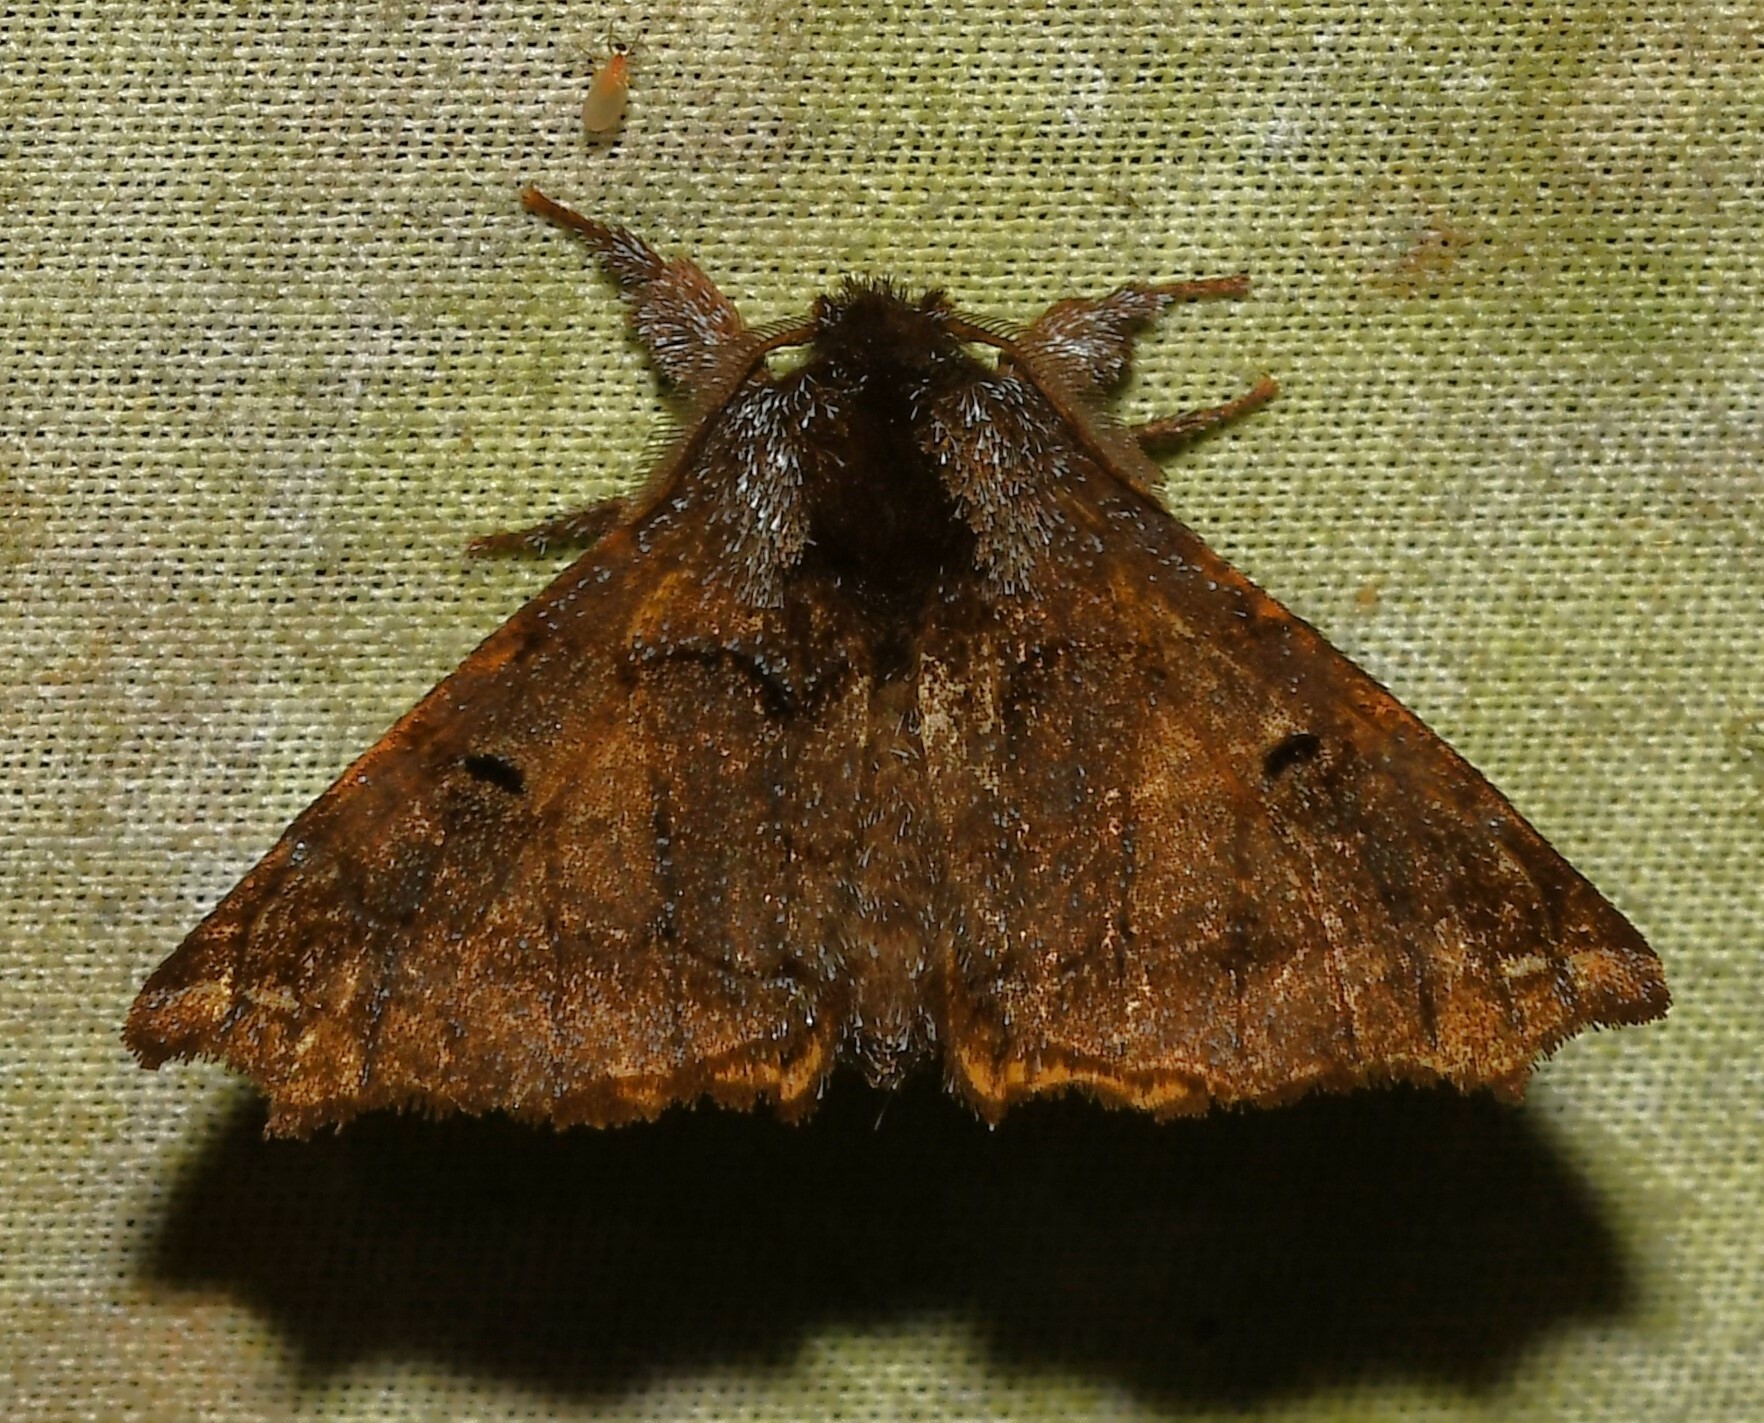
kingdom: Animalia
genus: Asocia
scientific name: Asocia virginis
